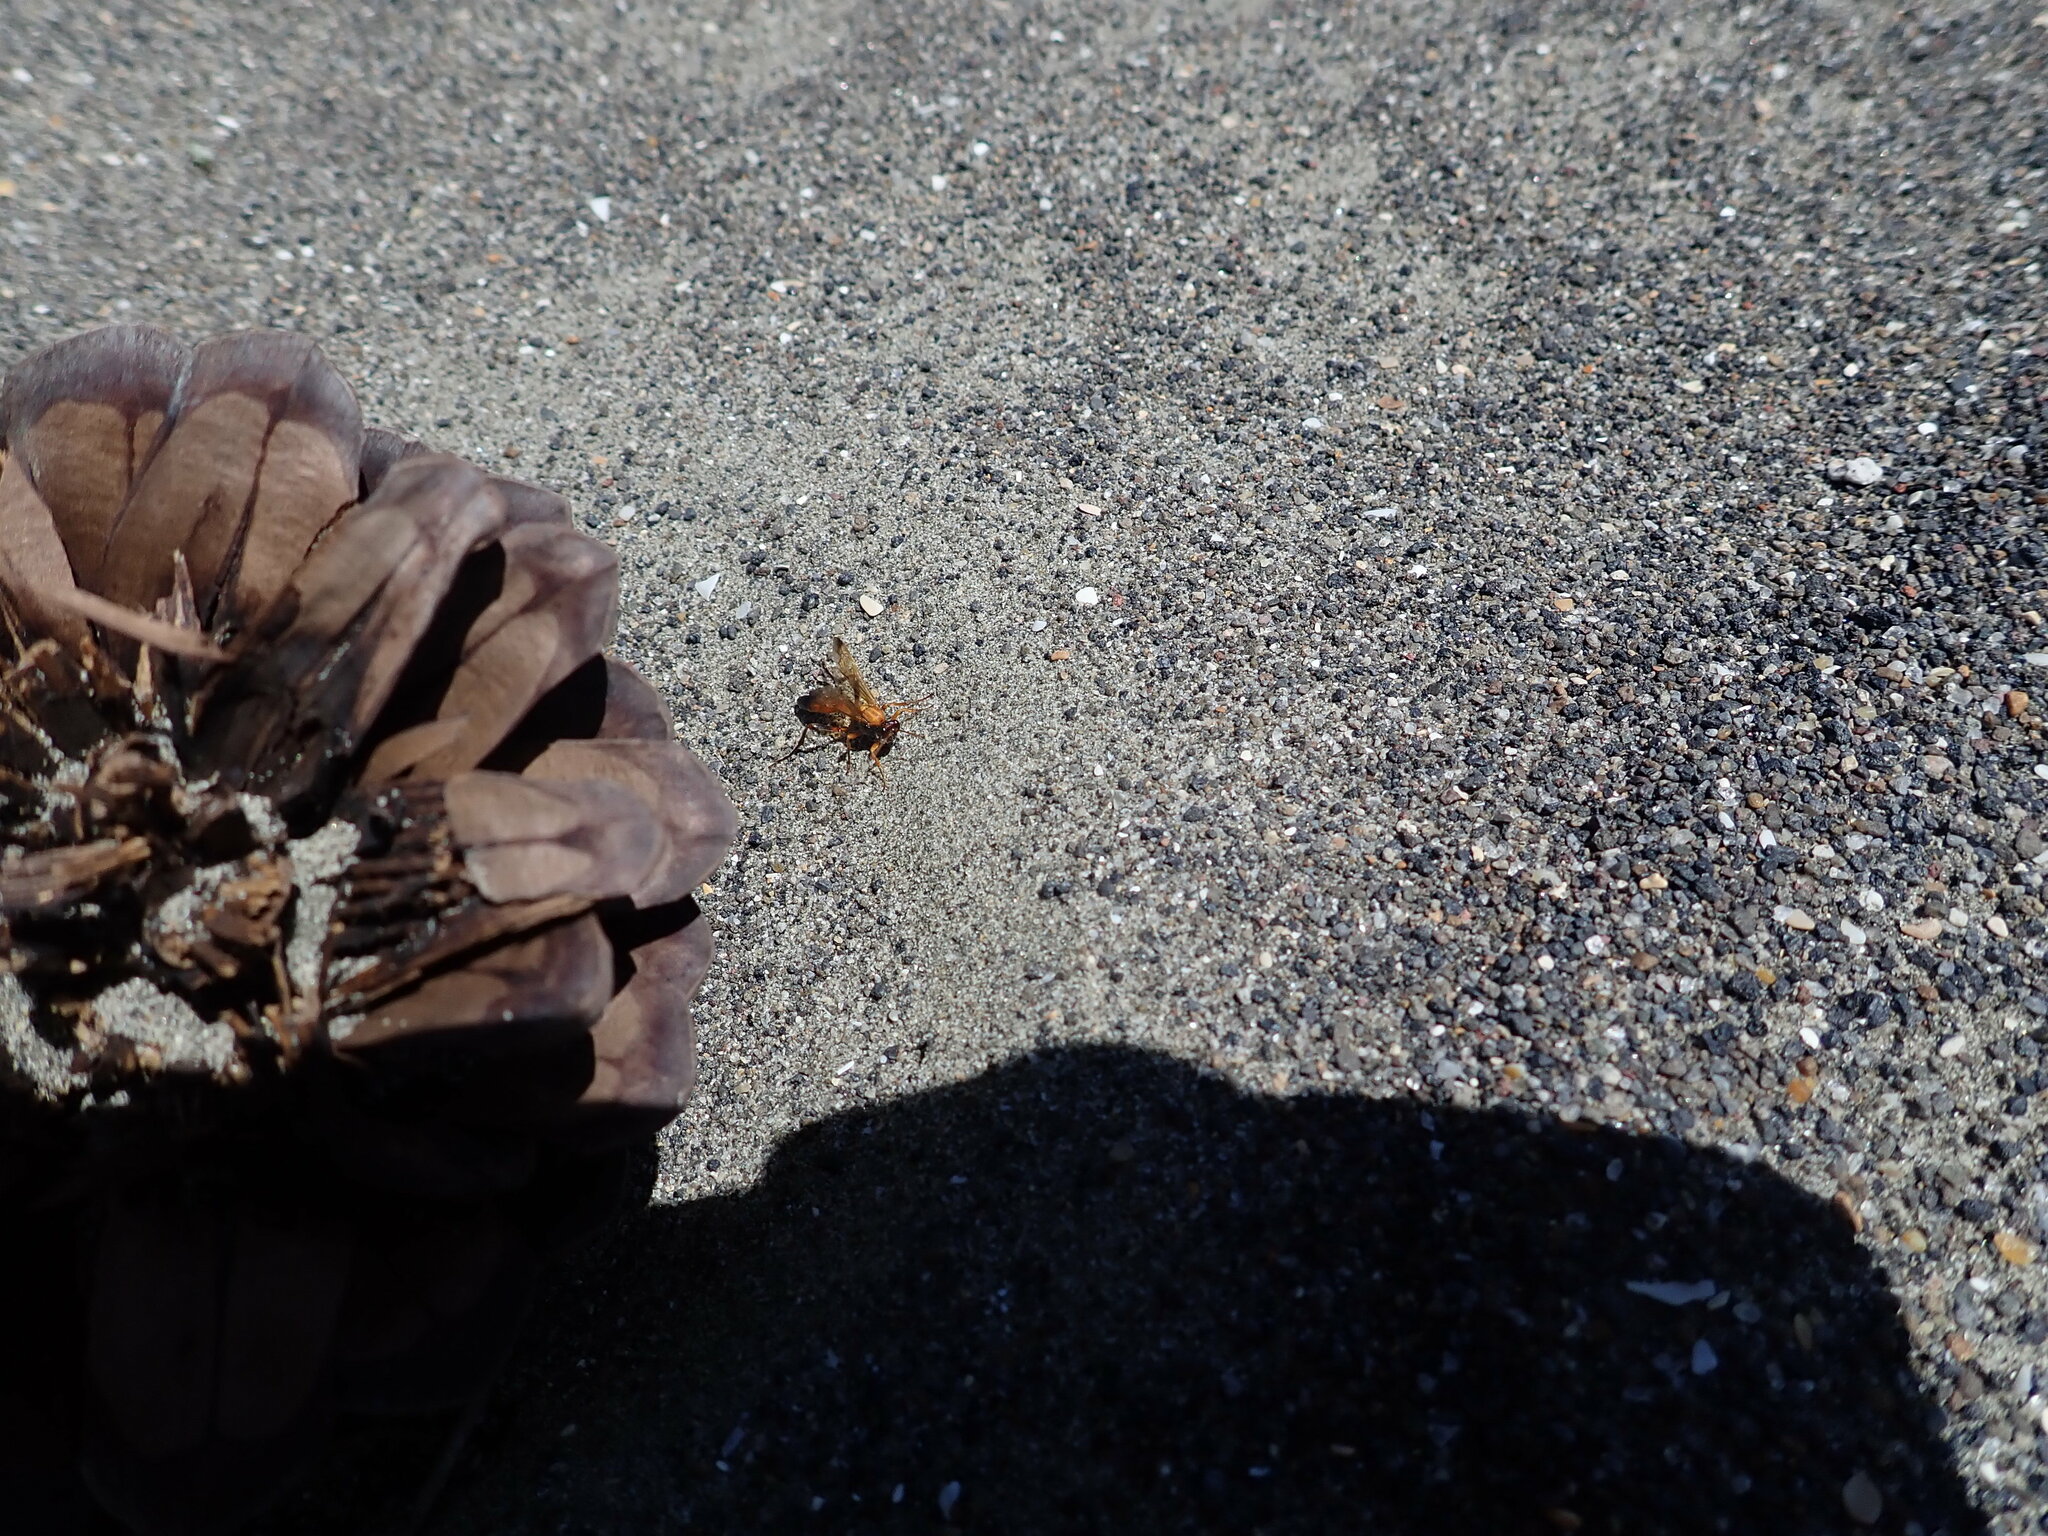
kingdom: Animalia
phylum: Arthropoda
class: Insecta
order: Hymenoptera
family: Ichneumonidae
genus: Ctenochares
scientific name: Ctenochares bicolorus
